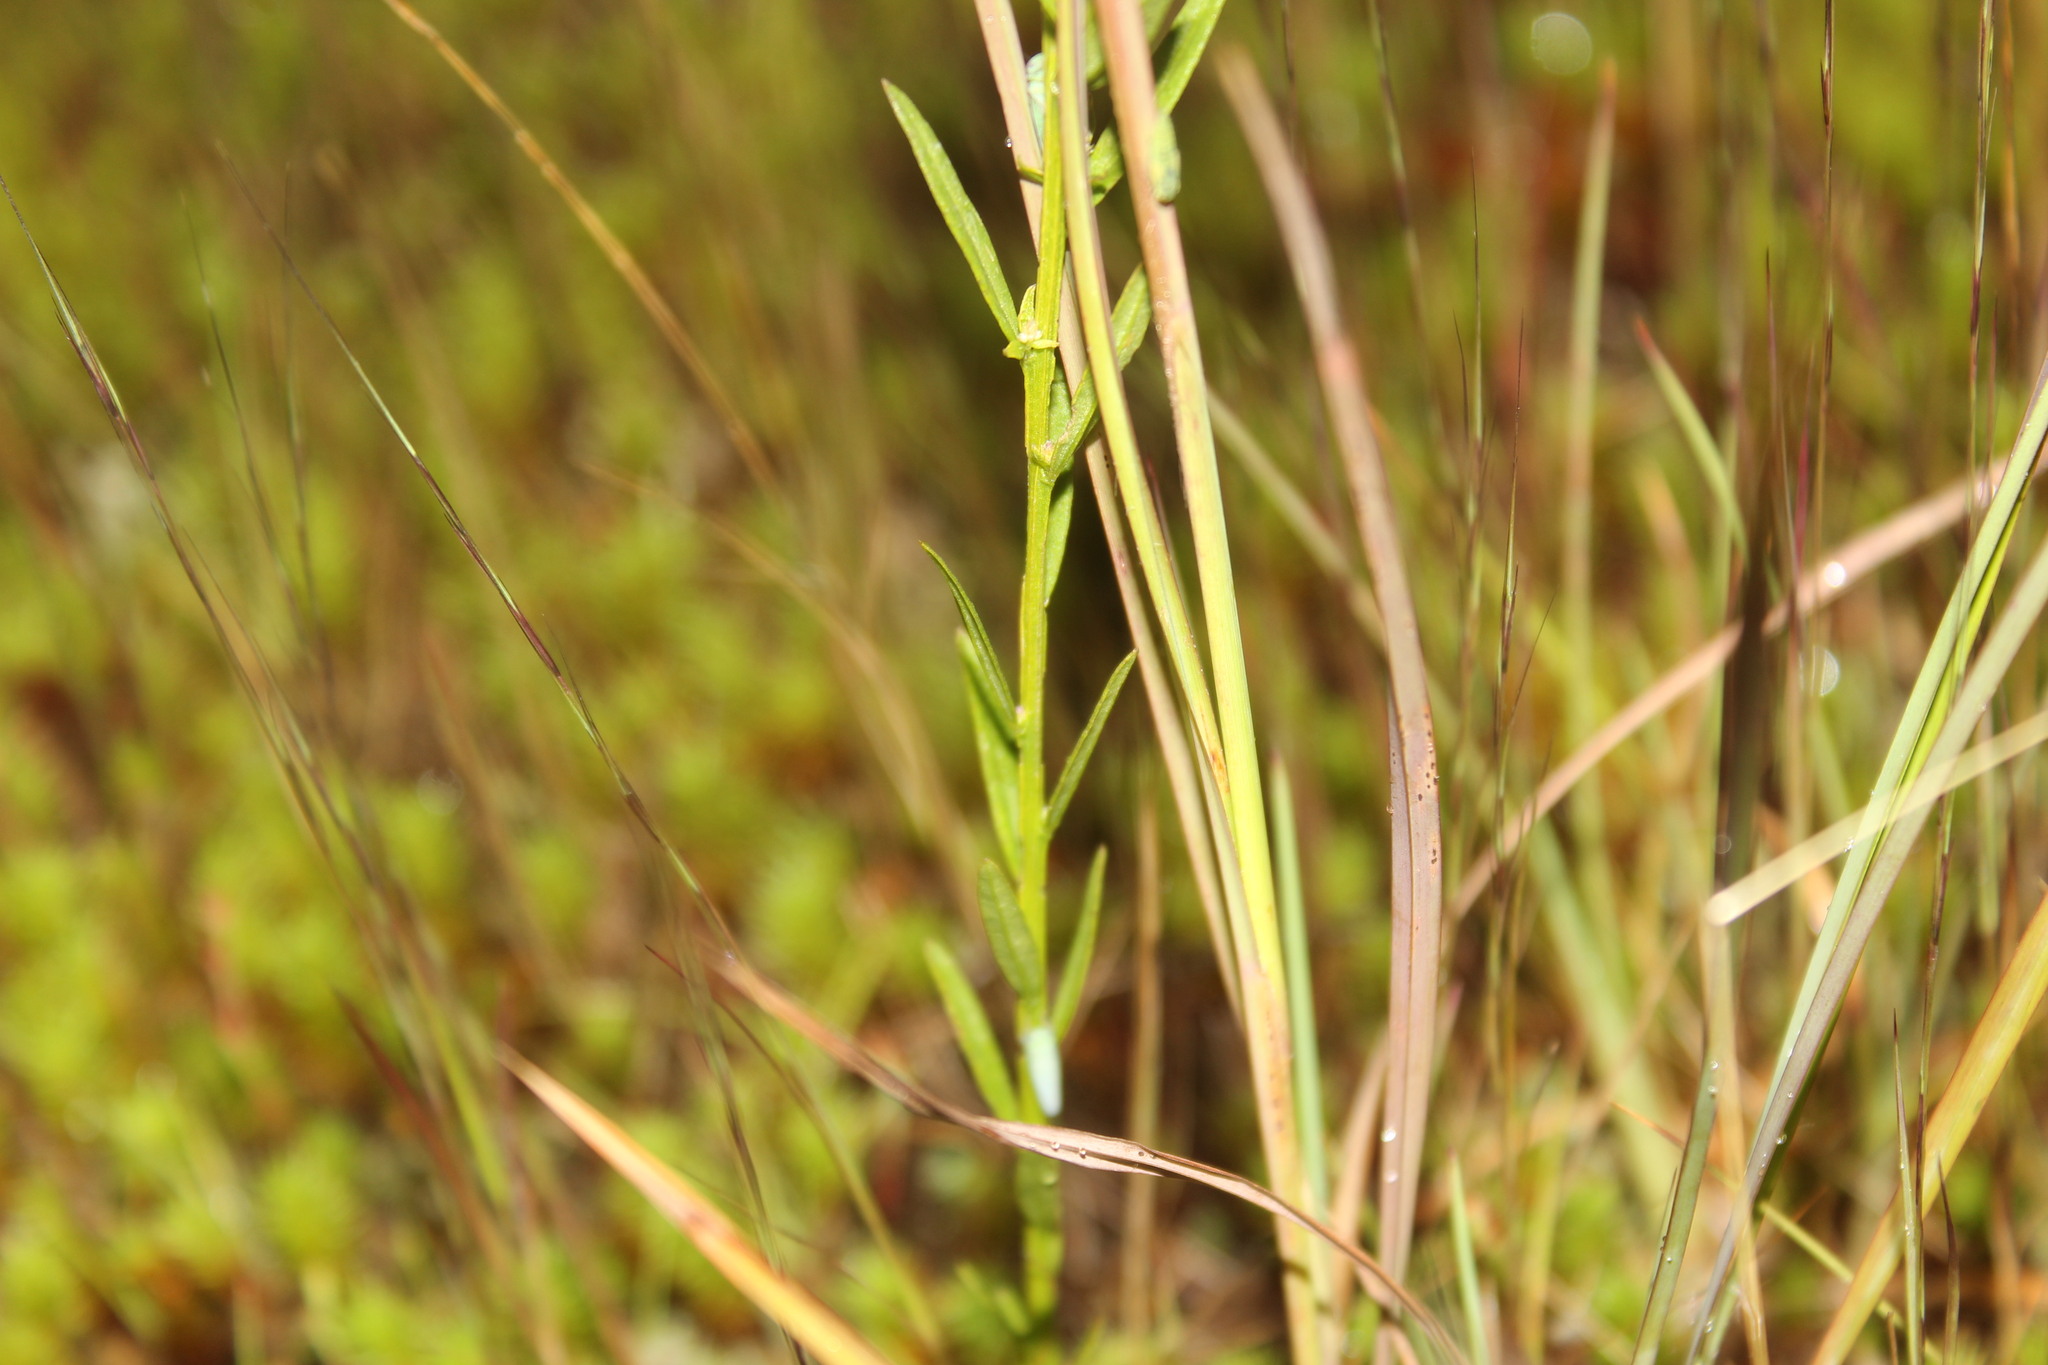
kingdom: Plantae
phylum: Tracheophyta
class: Magnoliopsida
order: Fabales
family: Polygalaceae
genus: Polygala
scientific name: Polygala sanguinea
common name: Blood milkwort
